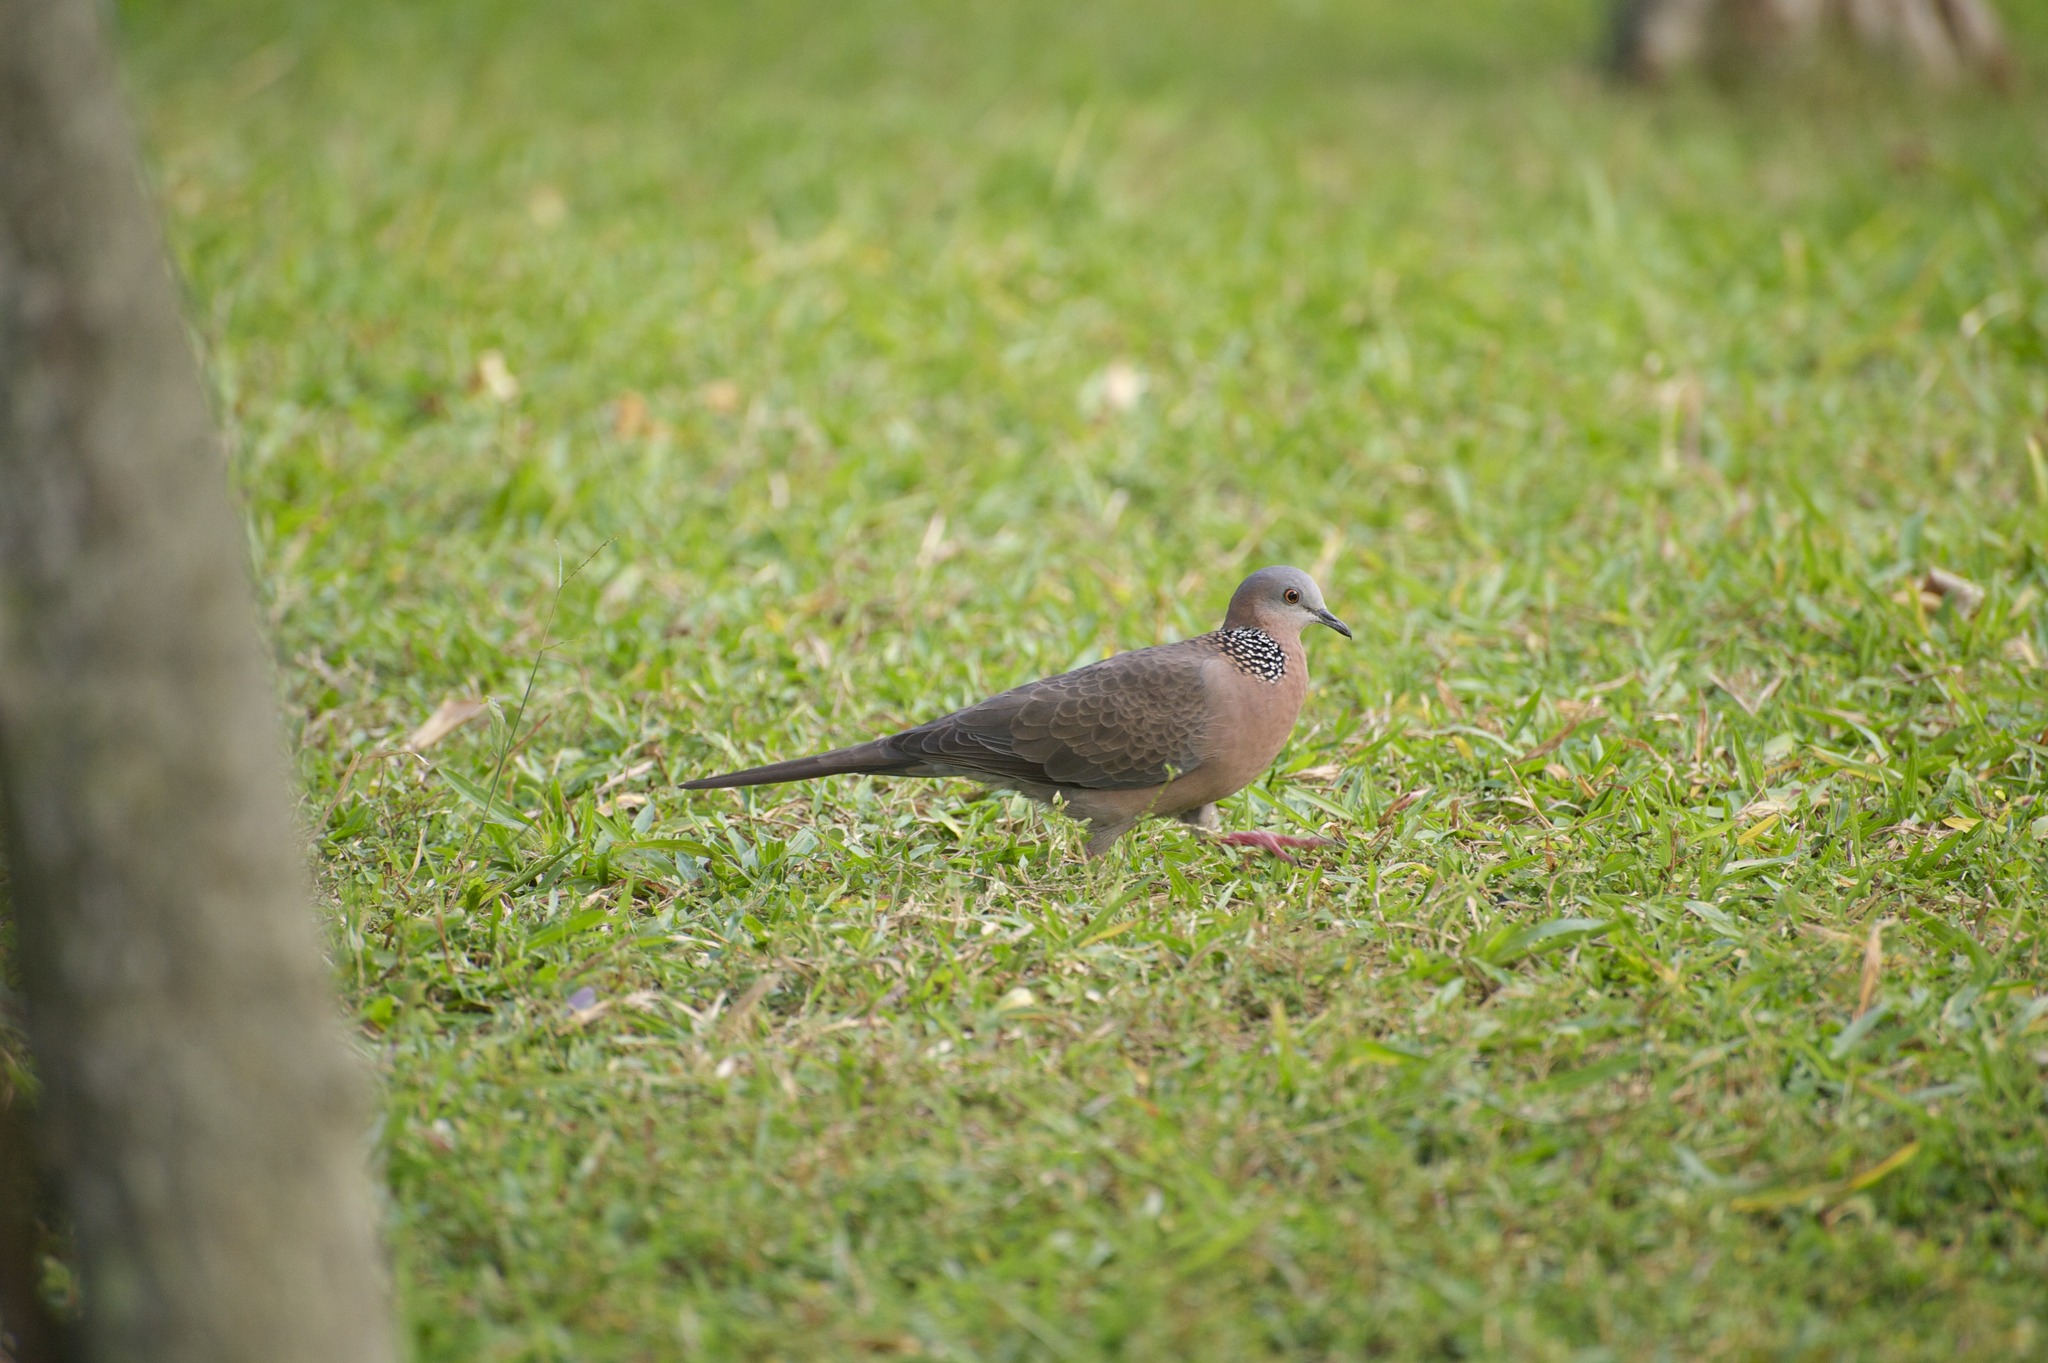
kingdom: Animalia
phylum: Chordata
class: Aves
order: Columbiformes
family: Columbidae
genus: Spilopelia
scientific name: Spilopelia chinensis
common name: Spotted dove
